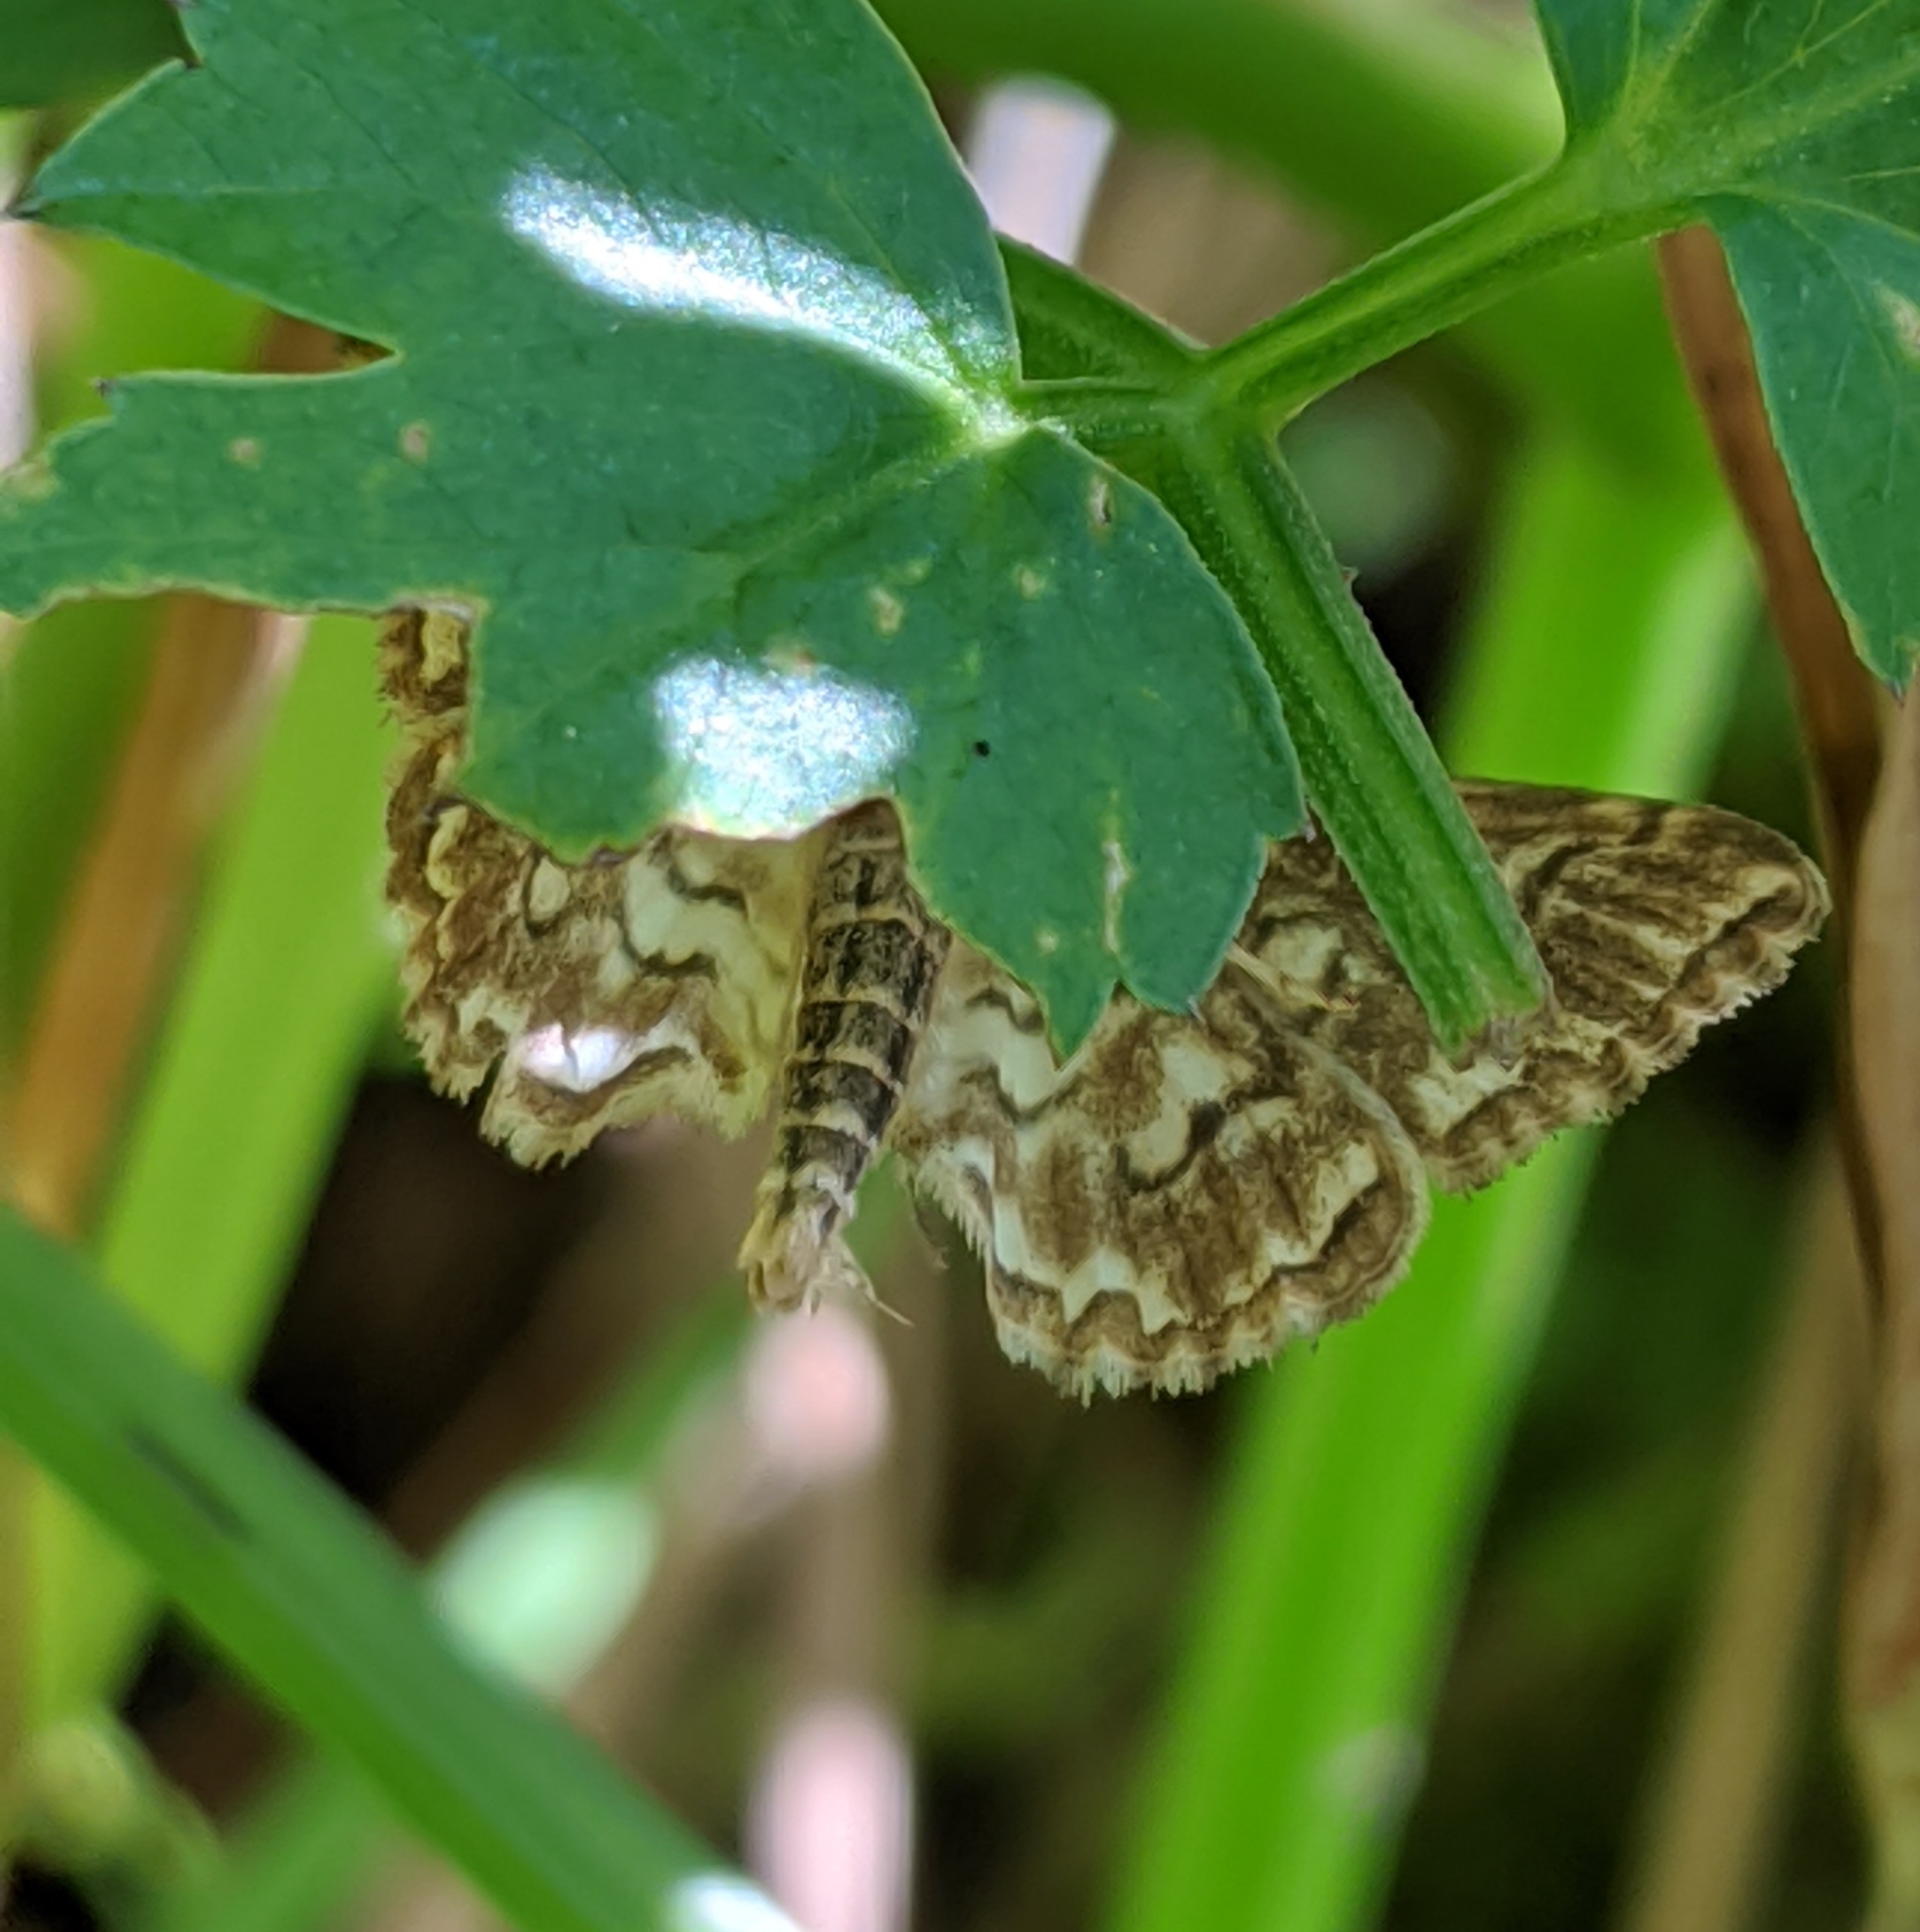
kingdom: Animalia
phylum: Arthropoda
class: Insecta
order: Lepidoptera
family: Crambidae
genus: Elophila
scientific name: Elophila icciusalis
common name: Pondside pyralid moth
